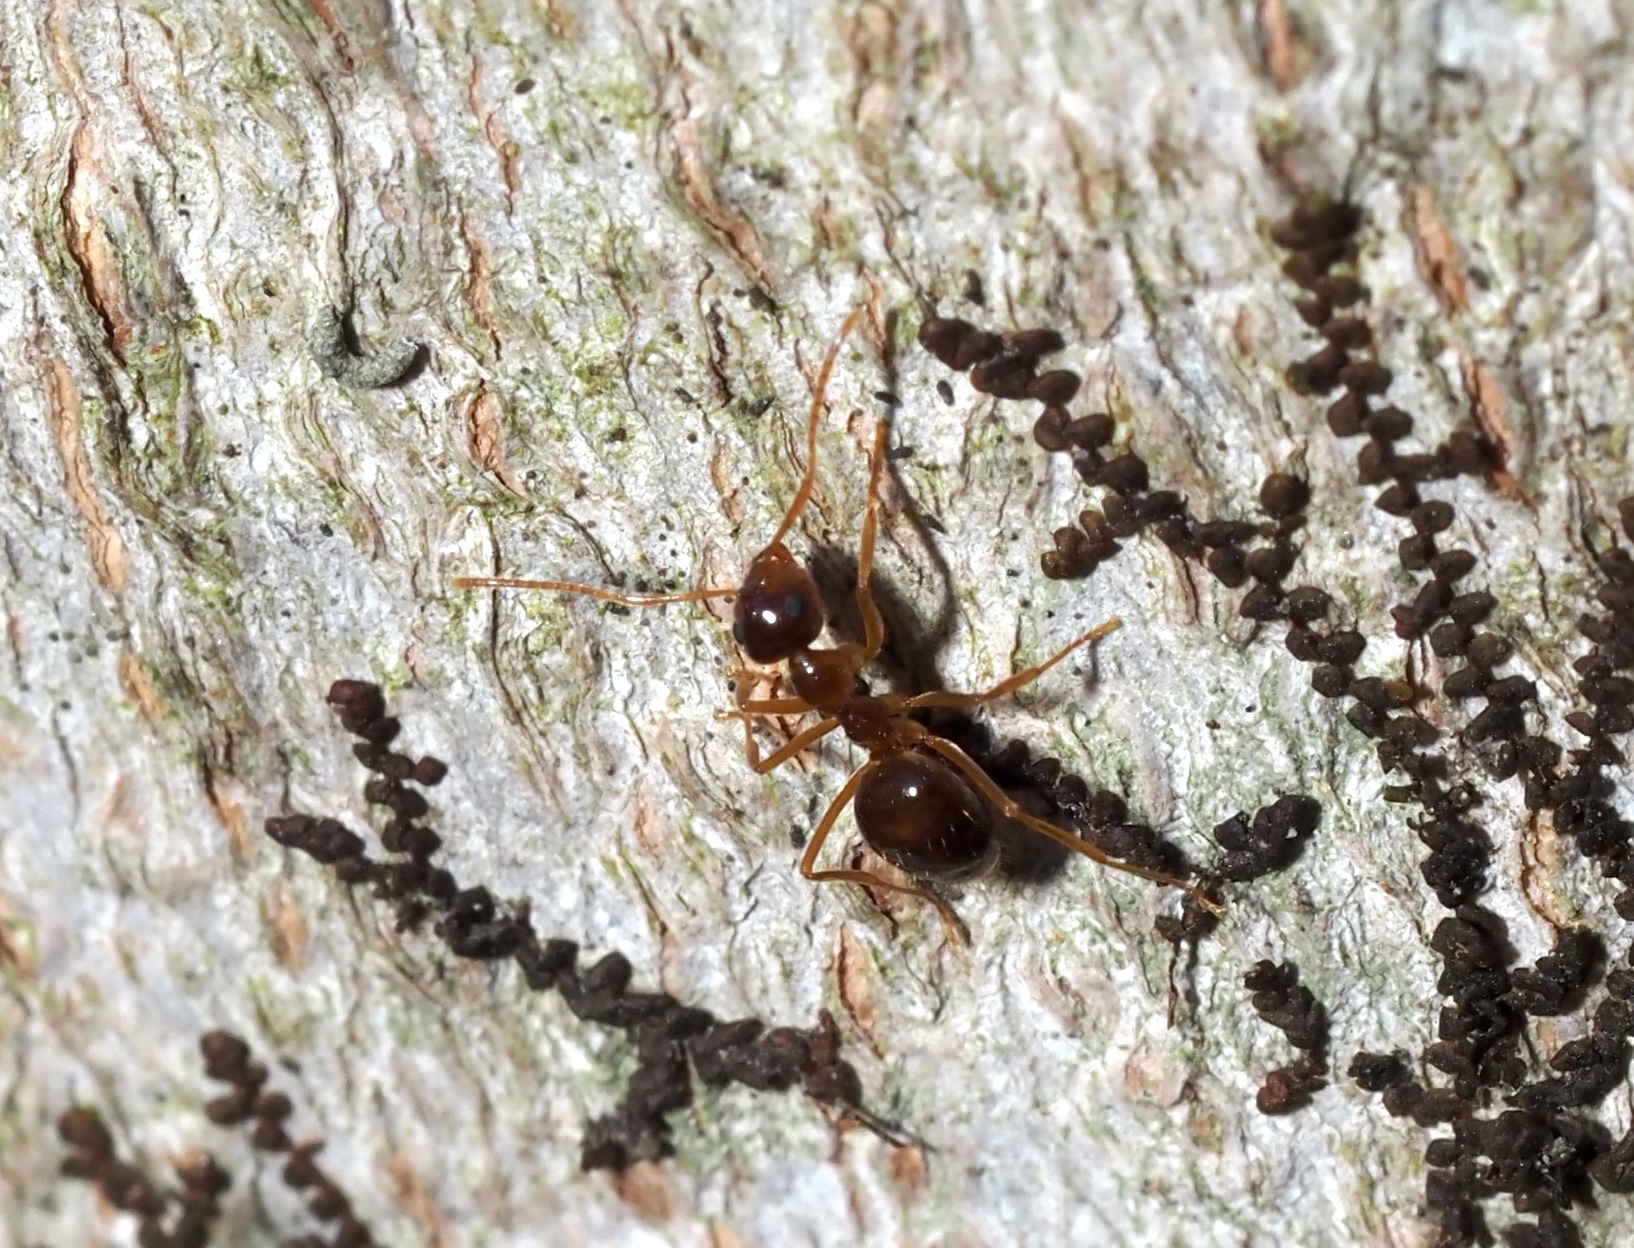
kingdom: Animalia
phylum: Arthropoda
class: Insecta
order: Hymenoptera
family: Formicidae
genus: Prenolepis
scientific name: Prenolepis imparis
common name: Small honey ant
